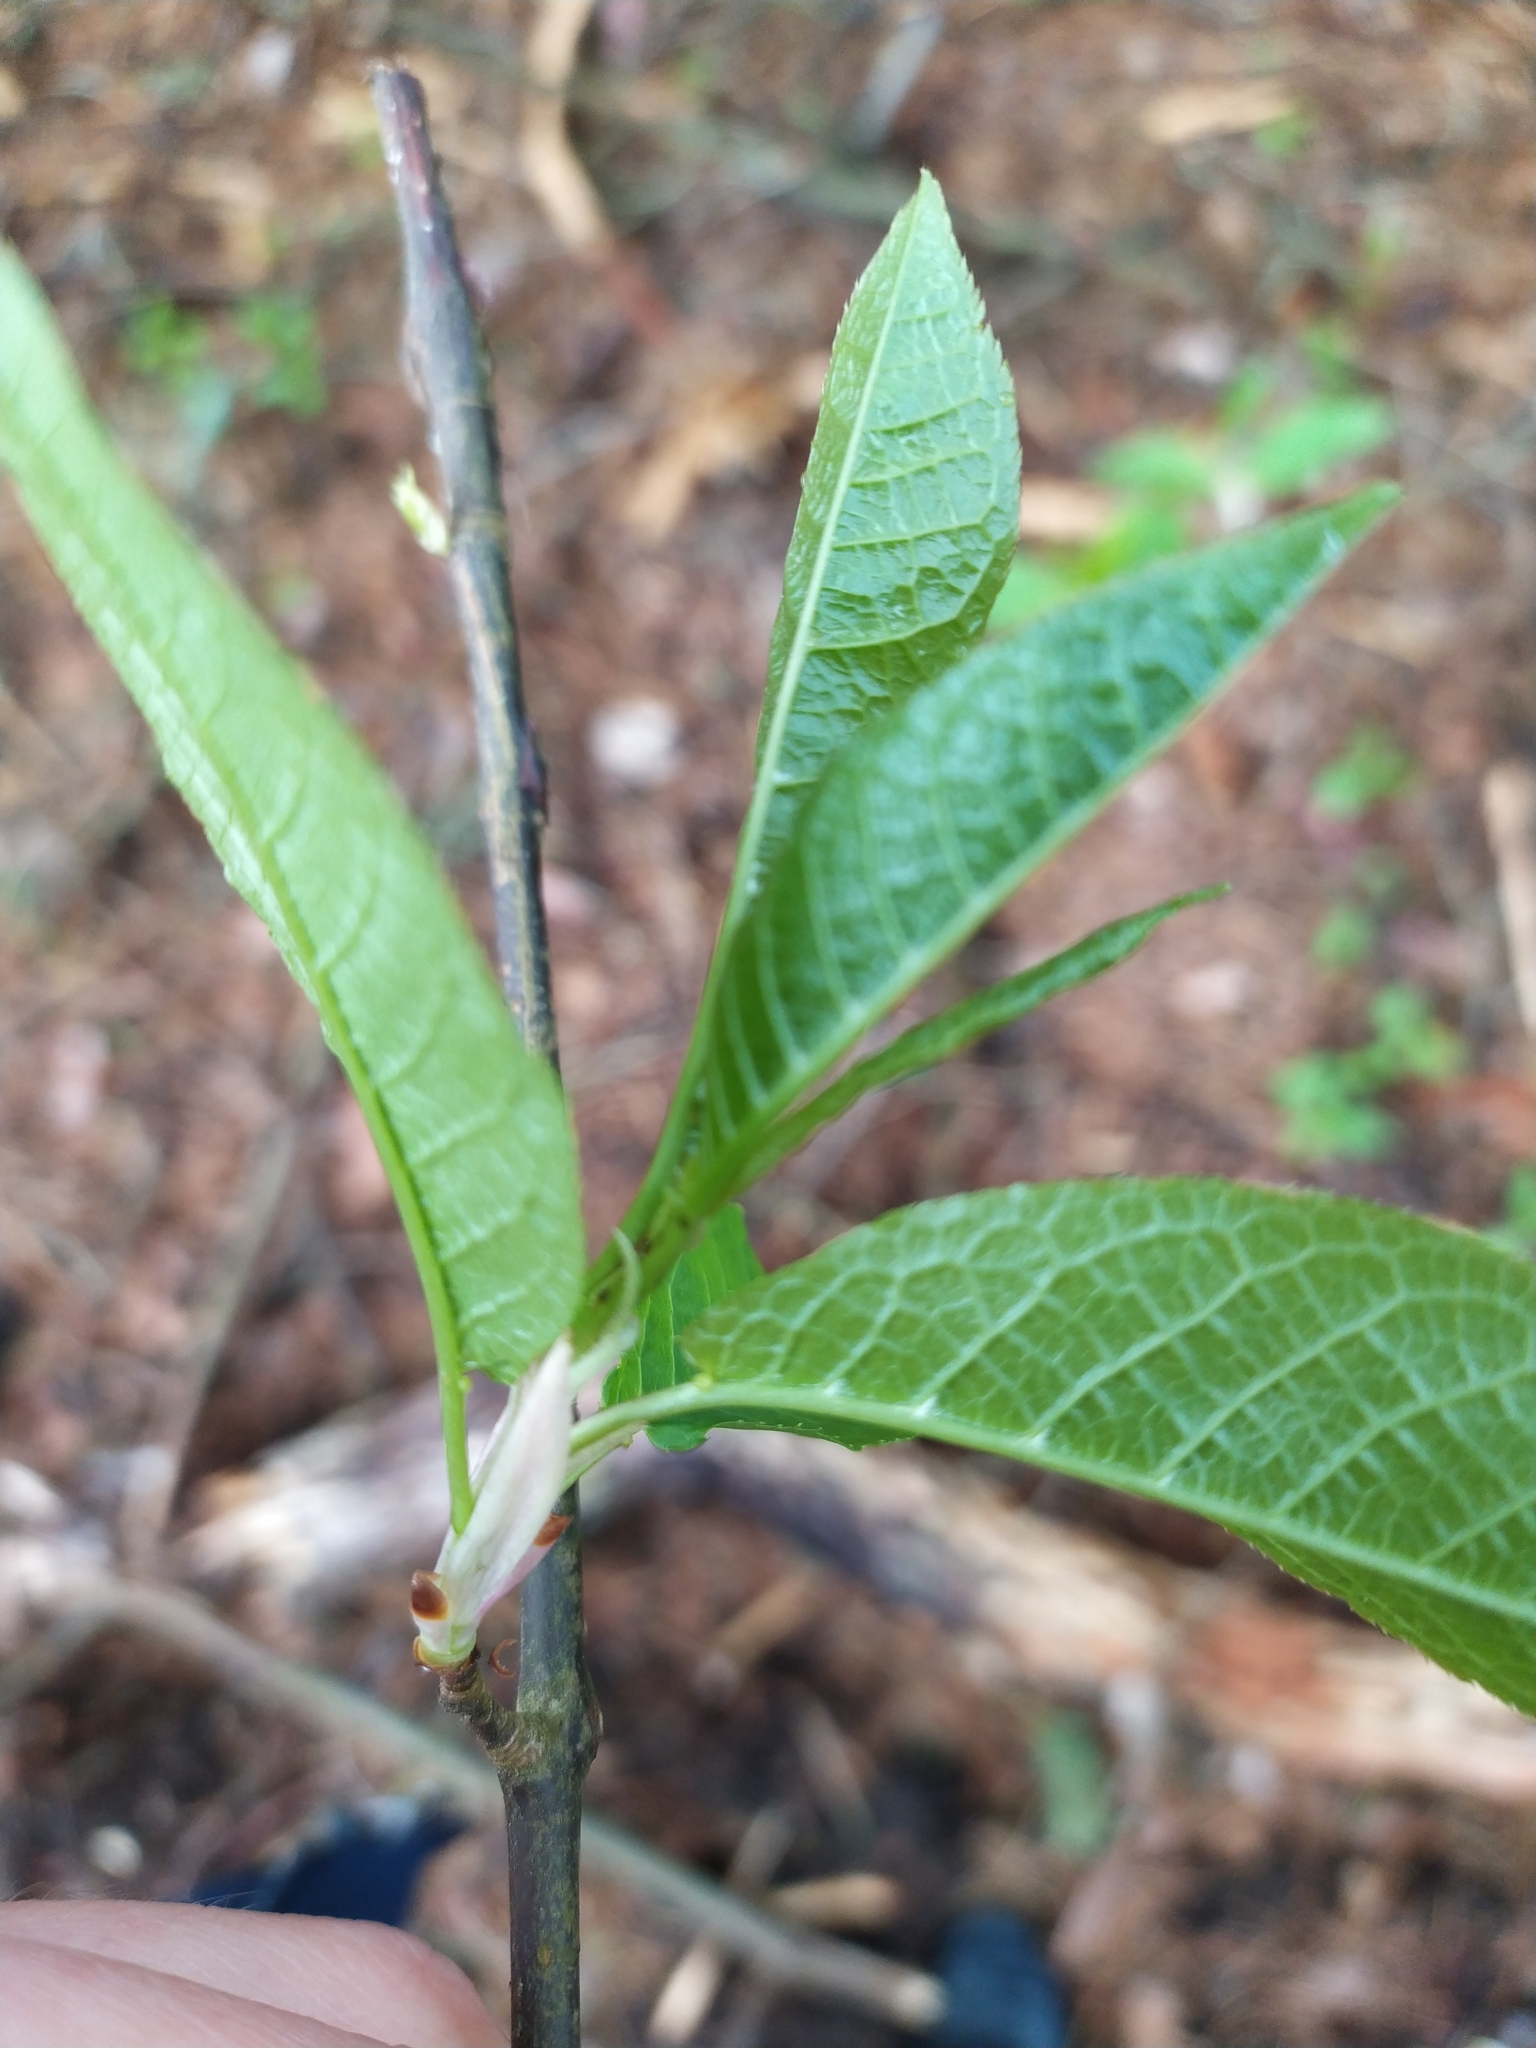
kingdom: Plantae
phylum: Tracheophyta
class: Magnoliopsida
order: Rosales
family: Rosaceae
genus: Prunus
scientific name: Prunus padus
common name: Bird cherry
